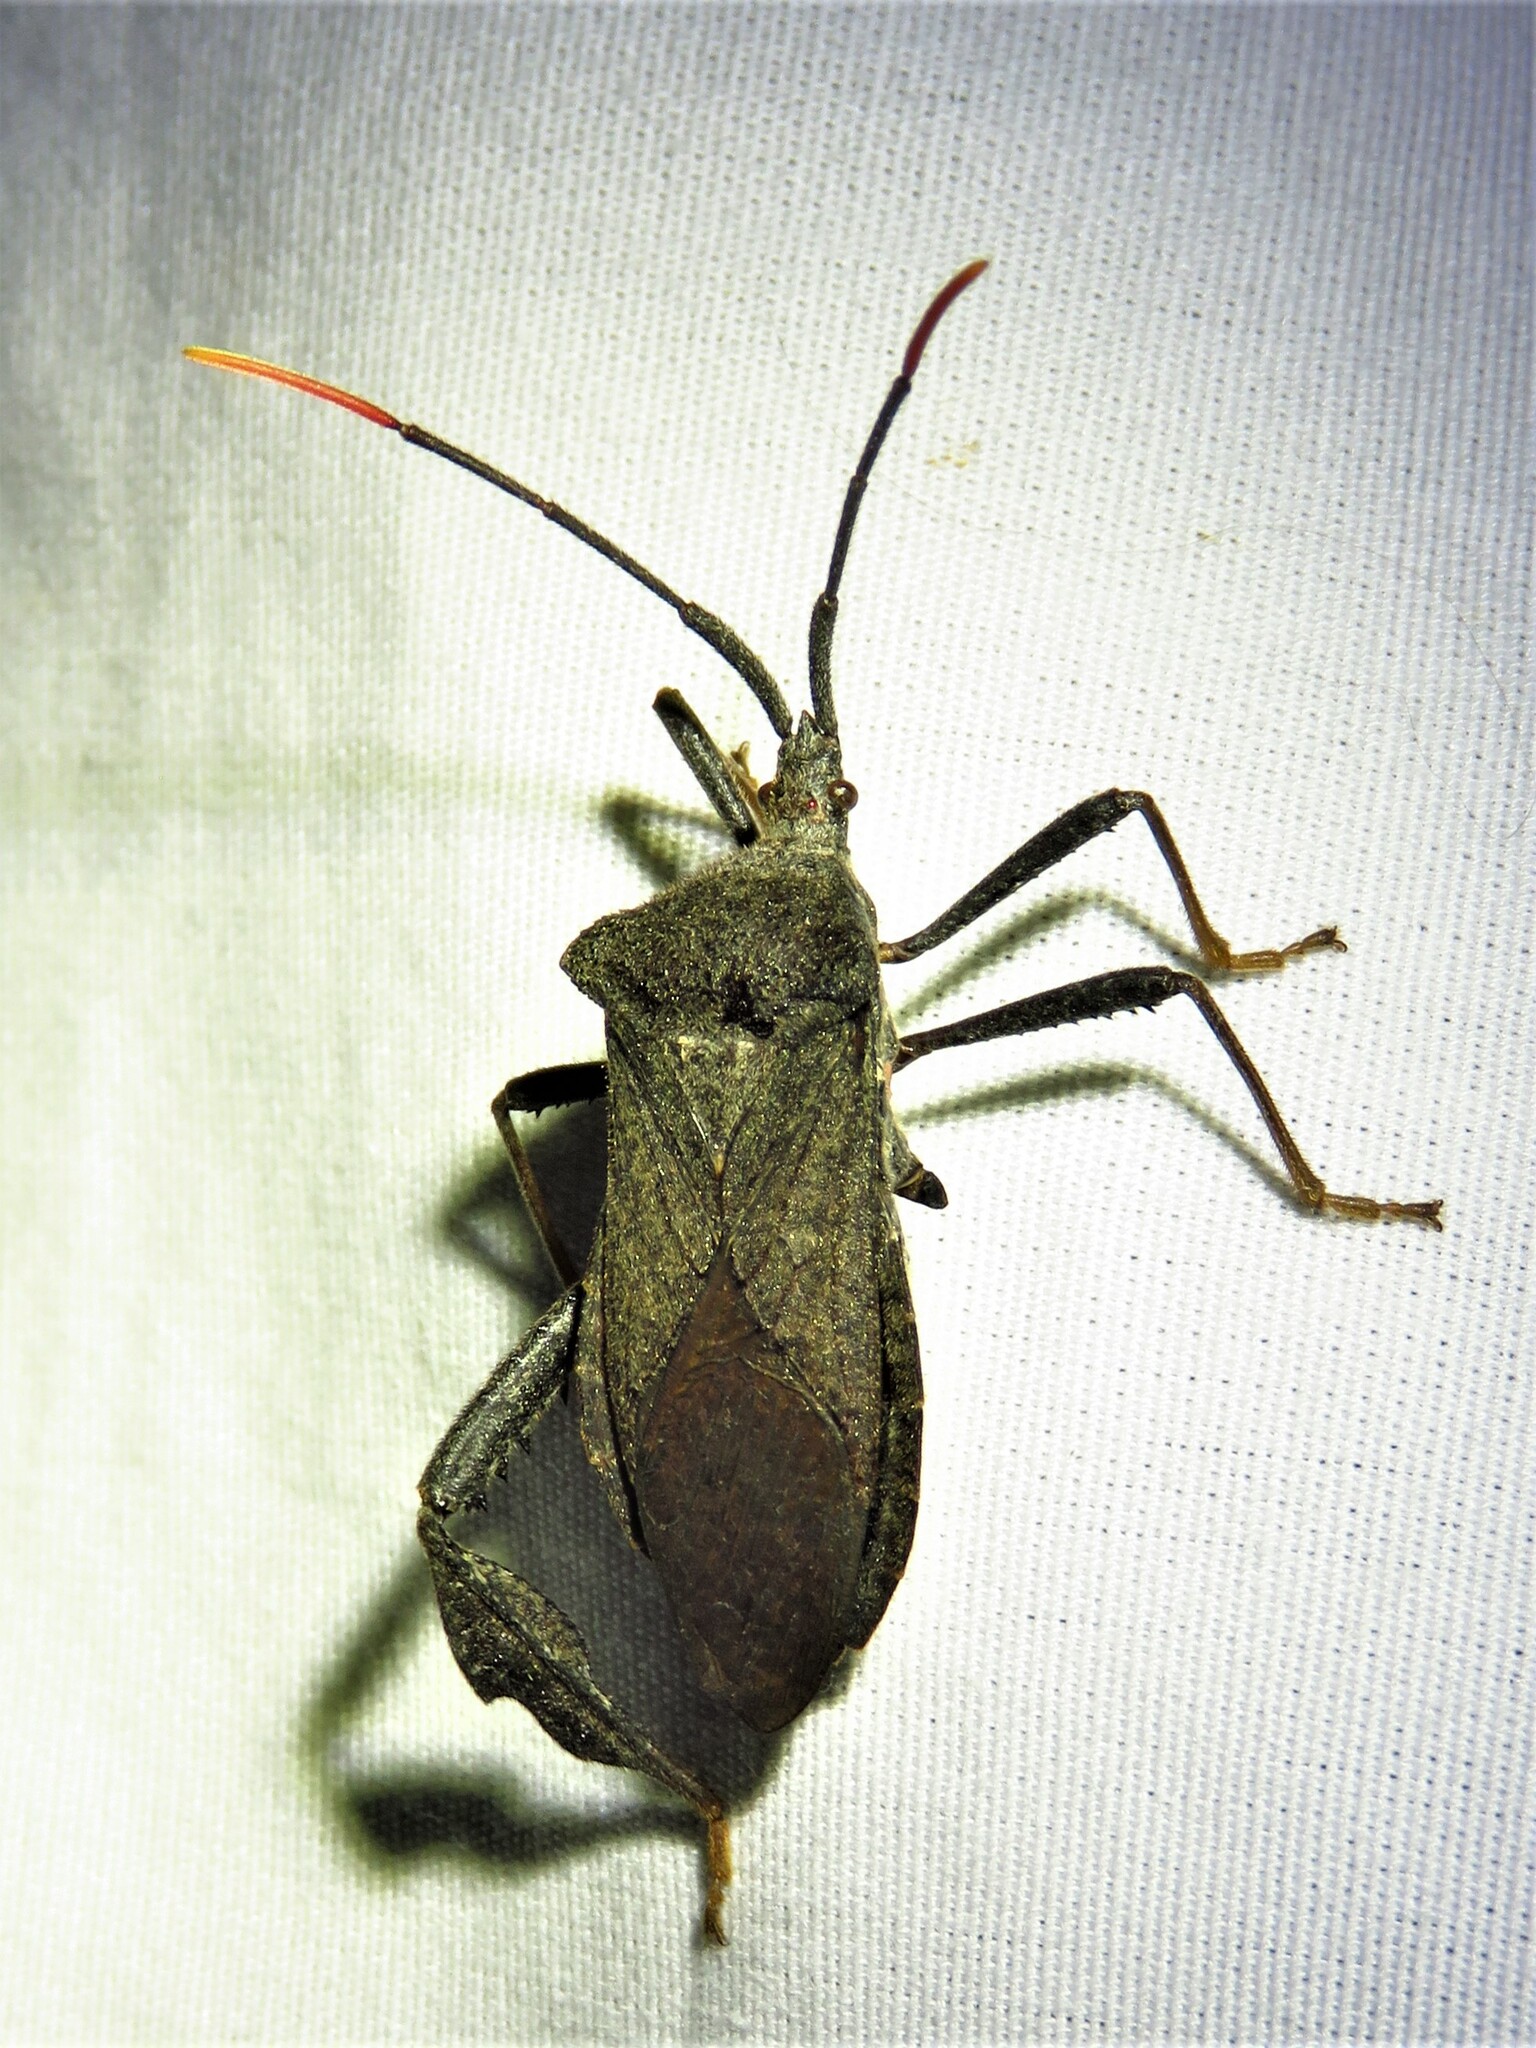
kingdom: Animalia
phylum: Arthropoda
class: Insecta
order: Hemiptera
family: Coreidae
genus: Acanthocephala
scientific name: Acanthocephala terminalis
